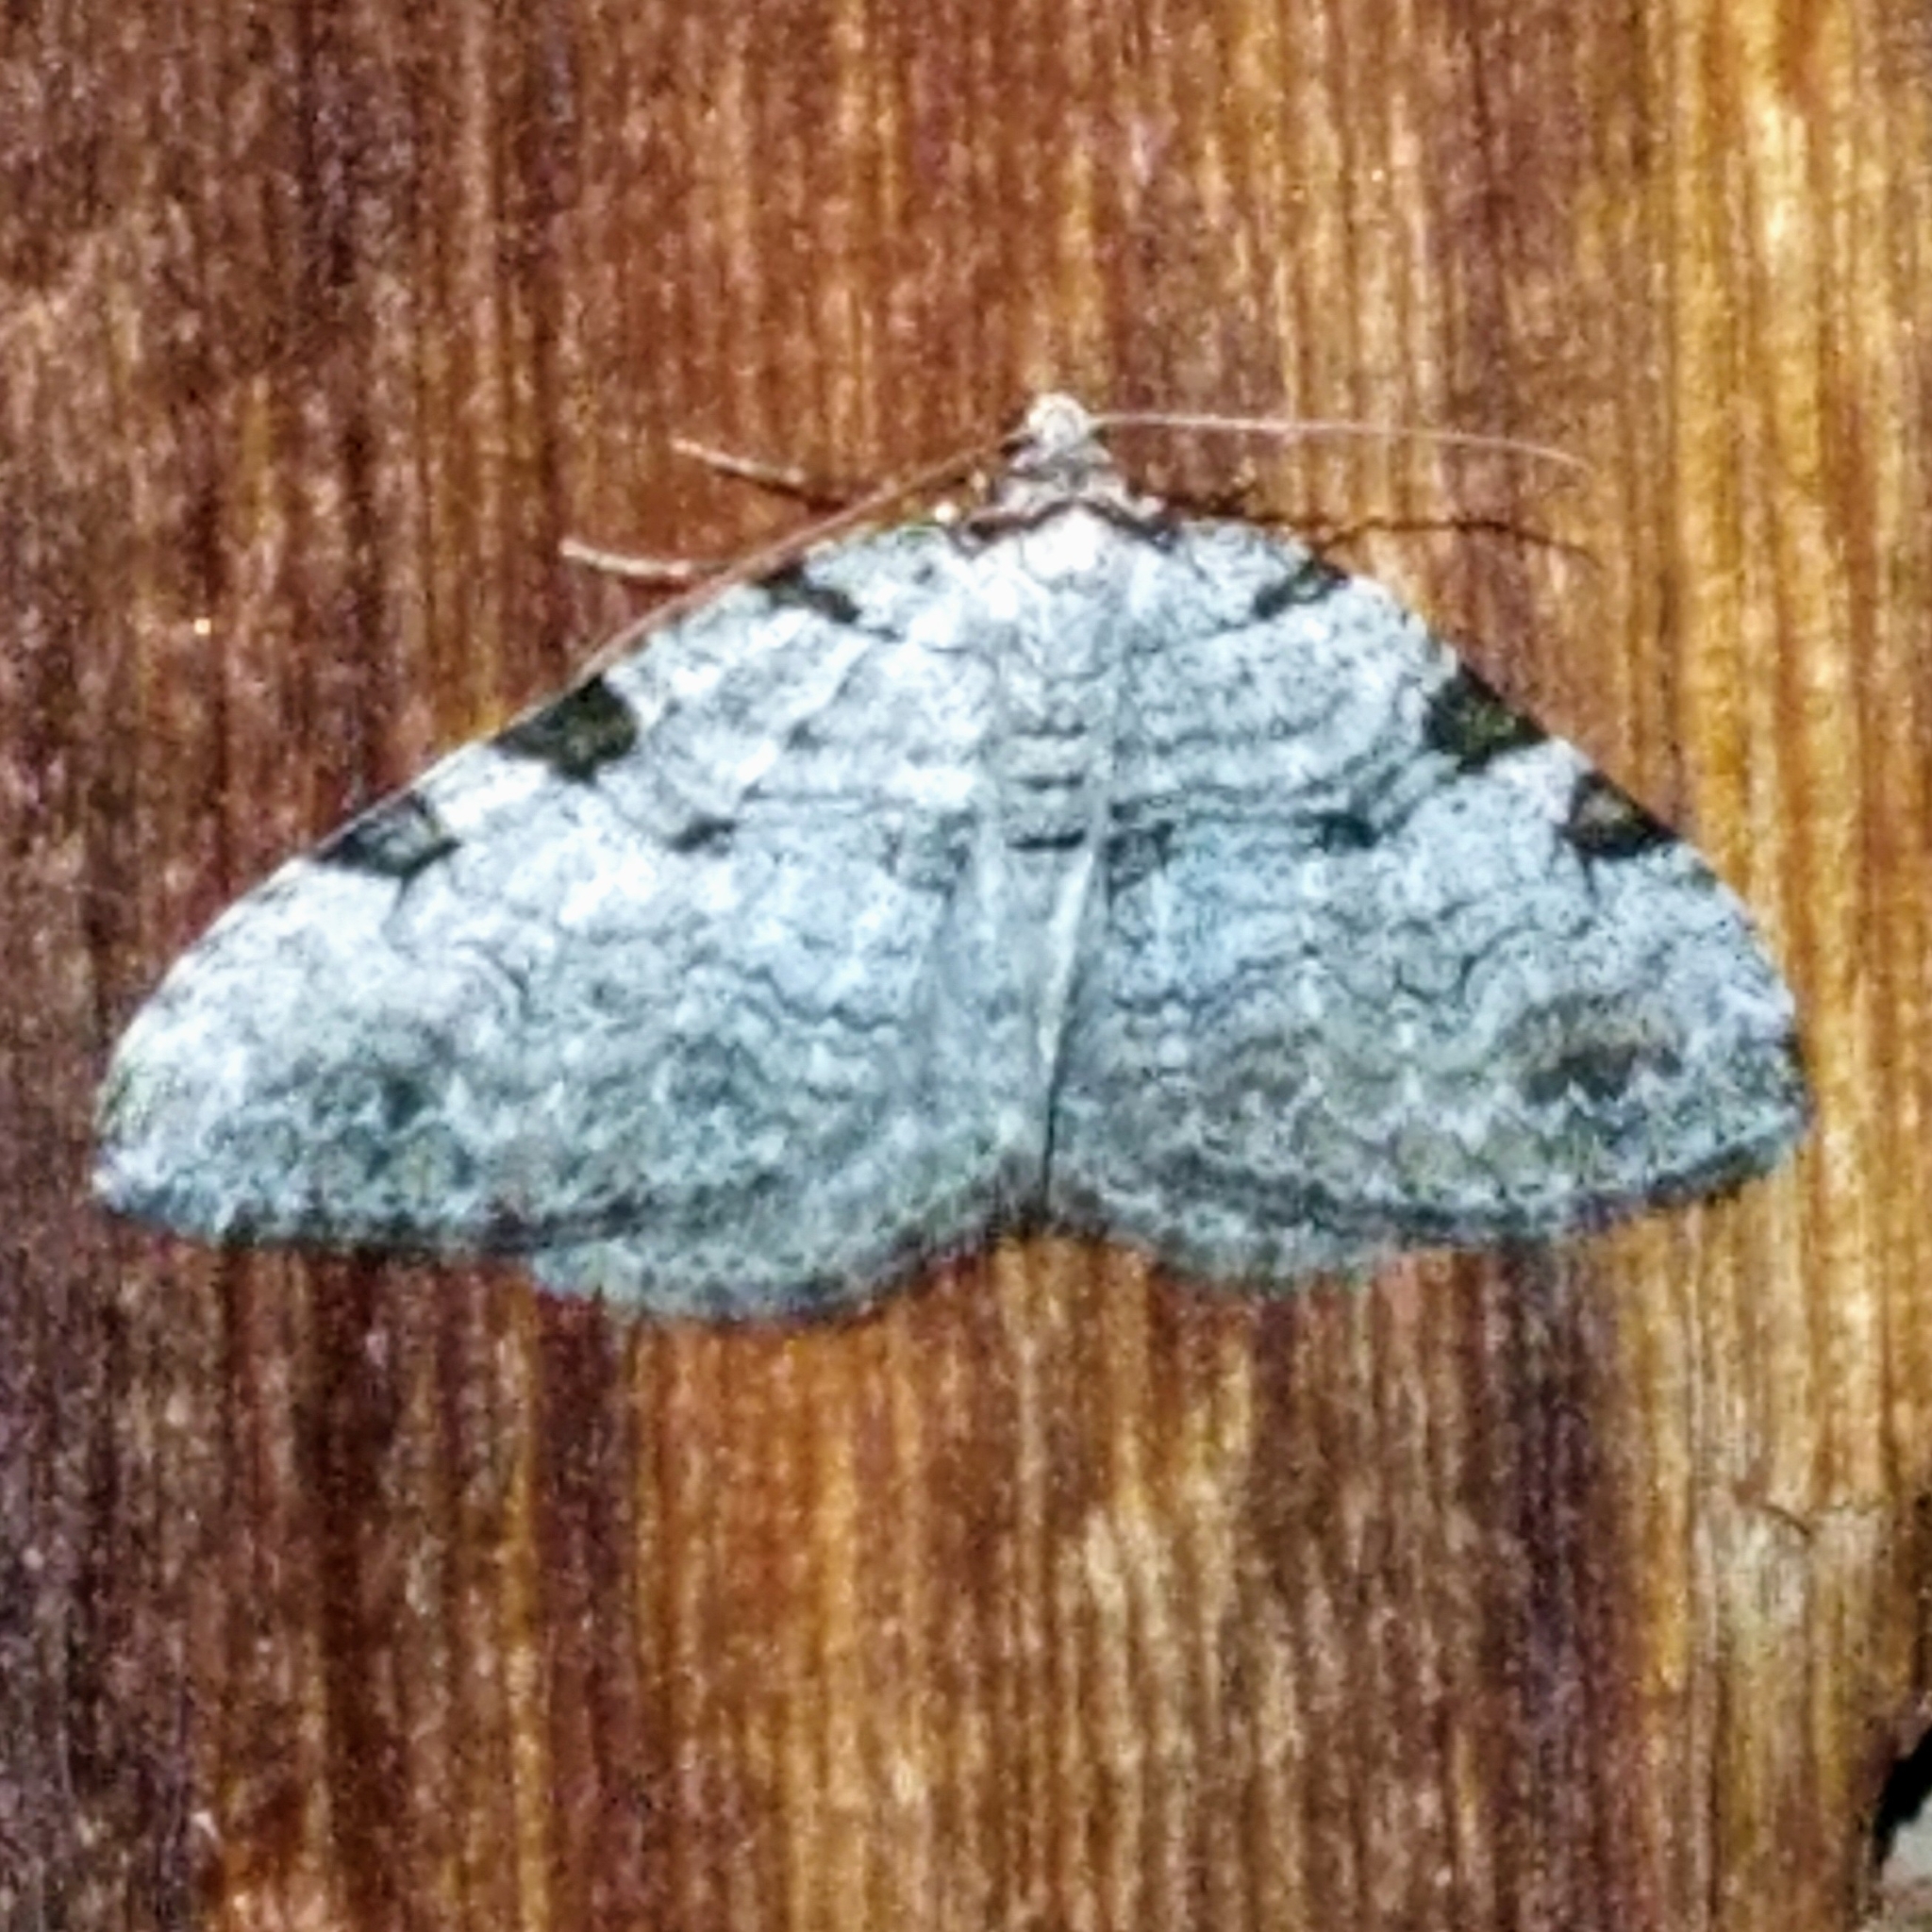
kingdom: Animalia
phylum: Arthropoda
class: Insecta
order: Lepidoptera
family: Geometridae
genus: Perizoma
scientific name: Perizoma costiguttata
